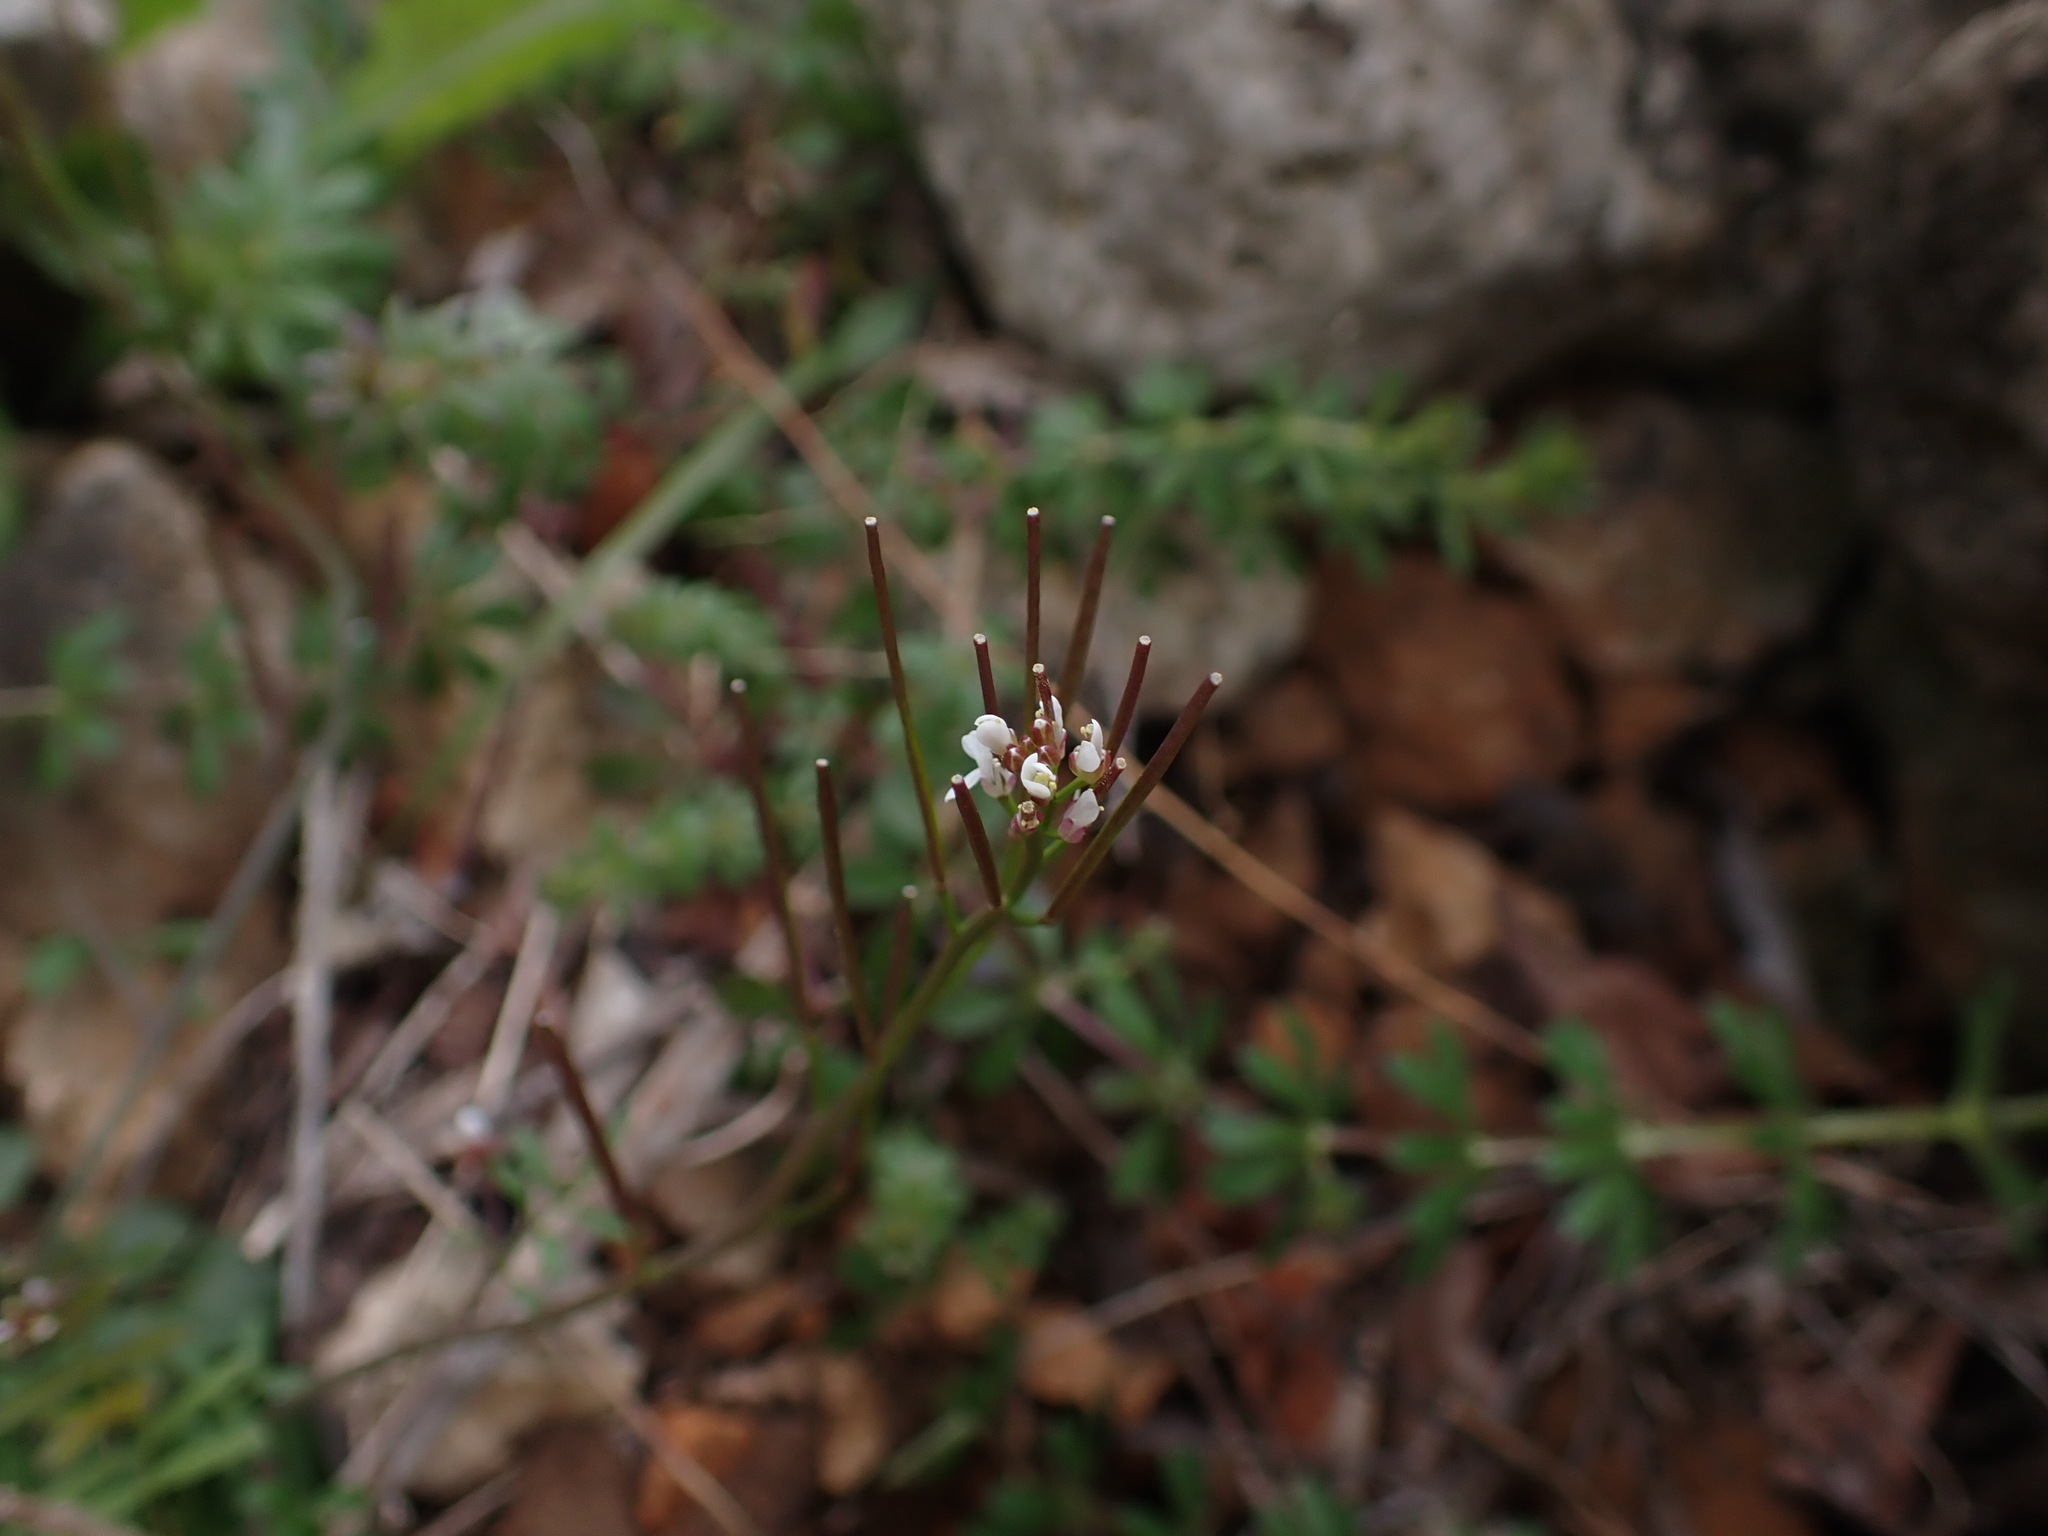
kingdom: Plantae
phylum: Tracheophyta
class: Magnoliopsida
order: Brassicales
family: Brassicaceae
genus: Cardamine
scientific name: Cardamine hirsuta
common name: Hairy bittercress
